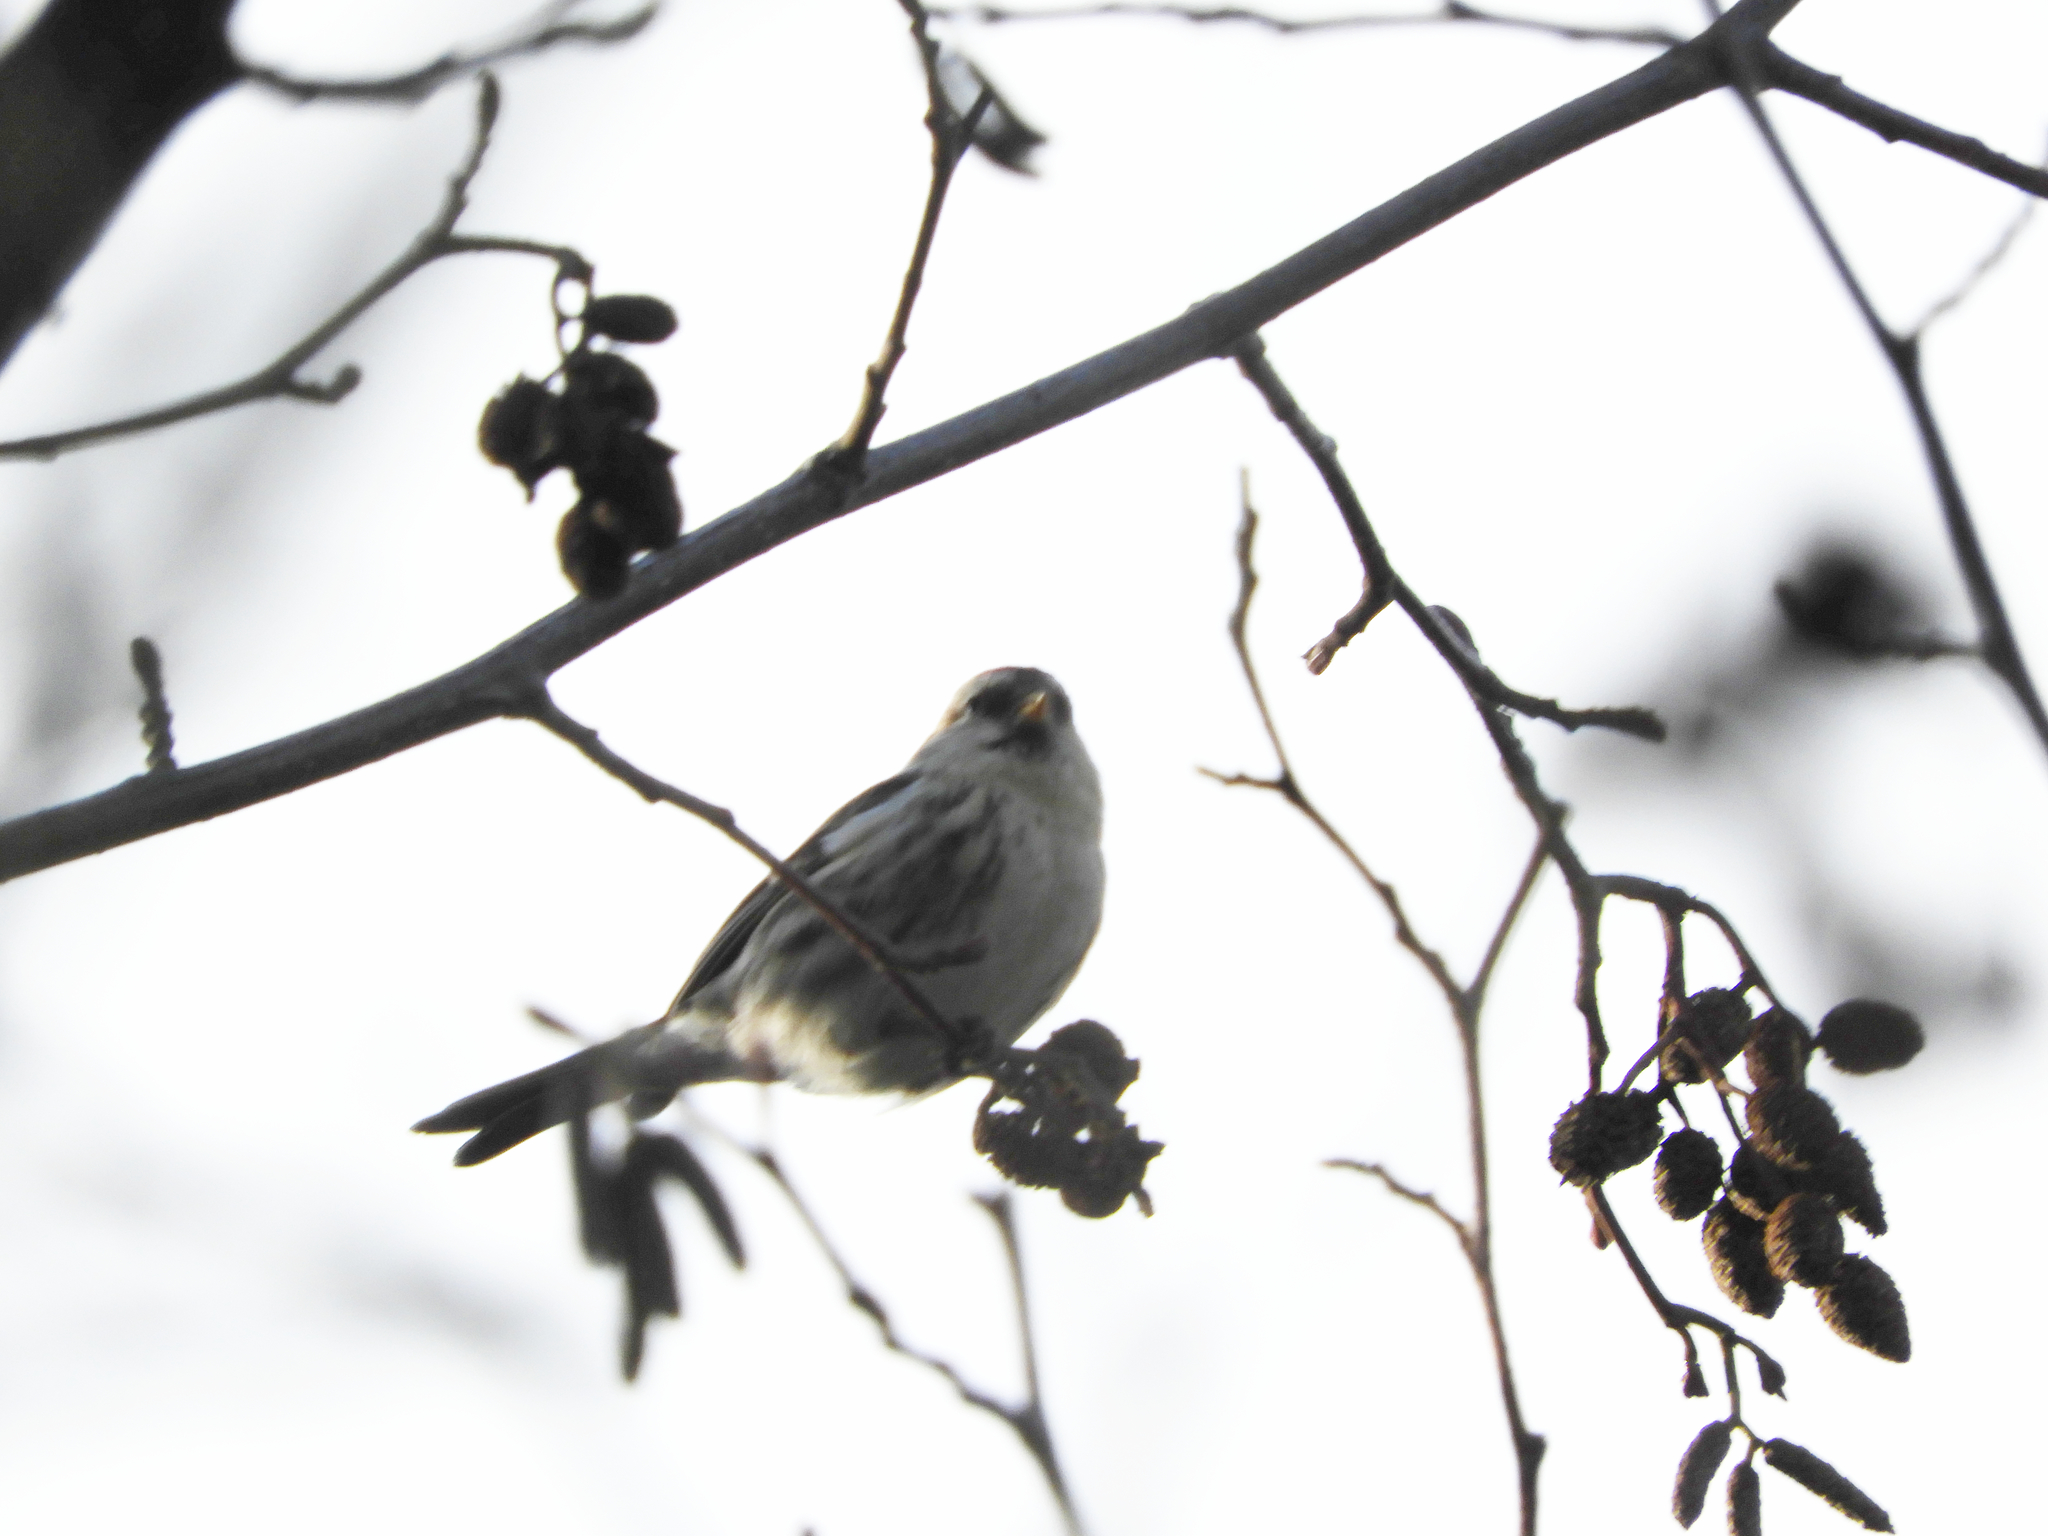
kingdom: Animalia
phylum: Chordata
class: Aves
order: Passeriformes
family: Fringillidae
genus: Acanthis
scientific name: Acanthis flammea
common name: Common redpoll
